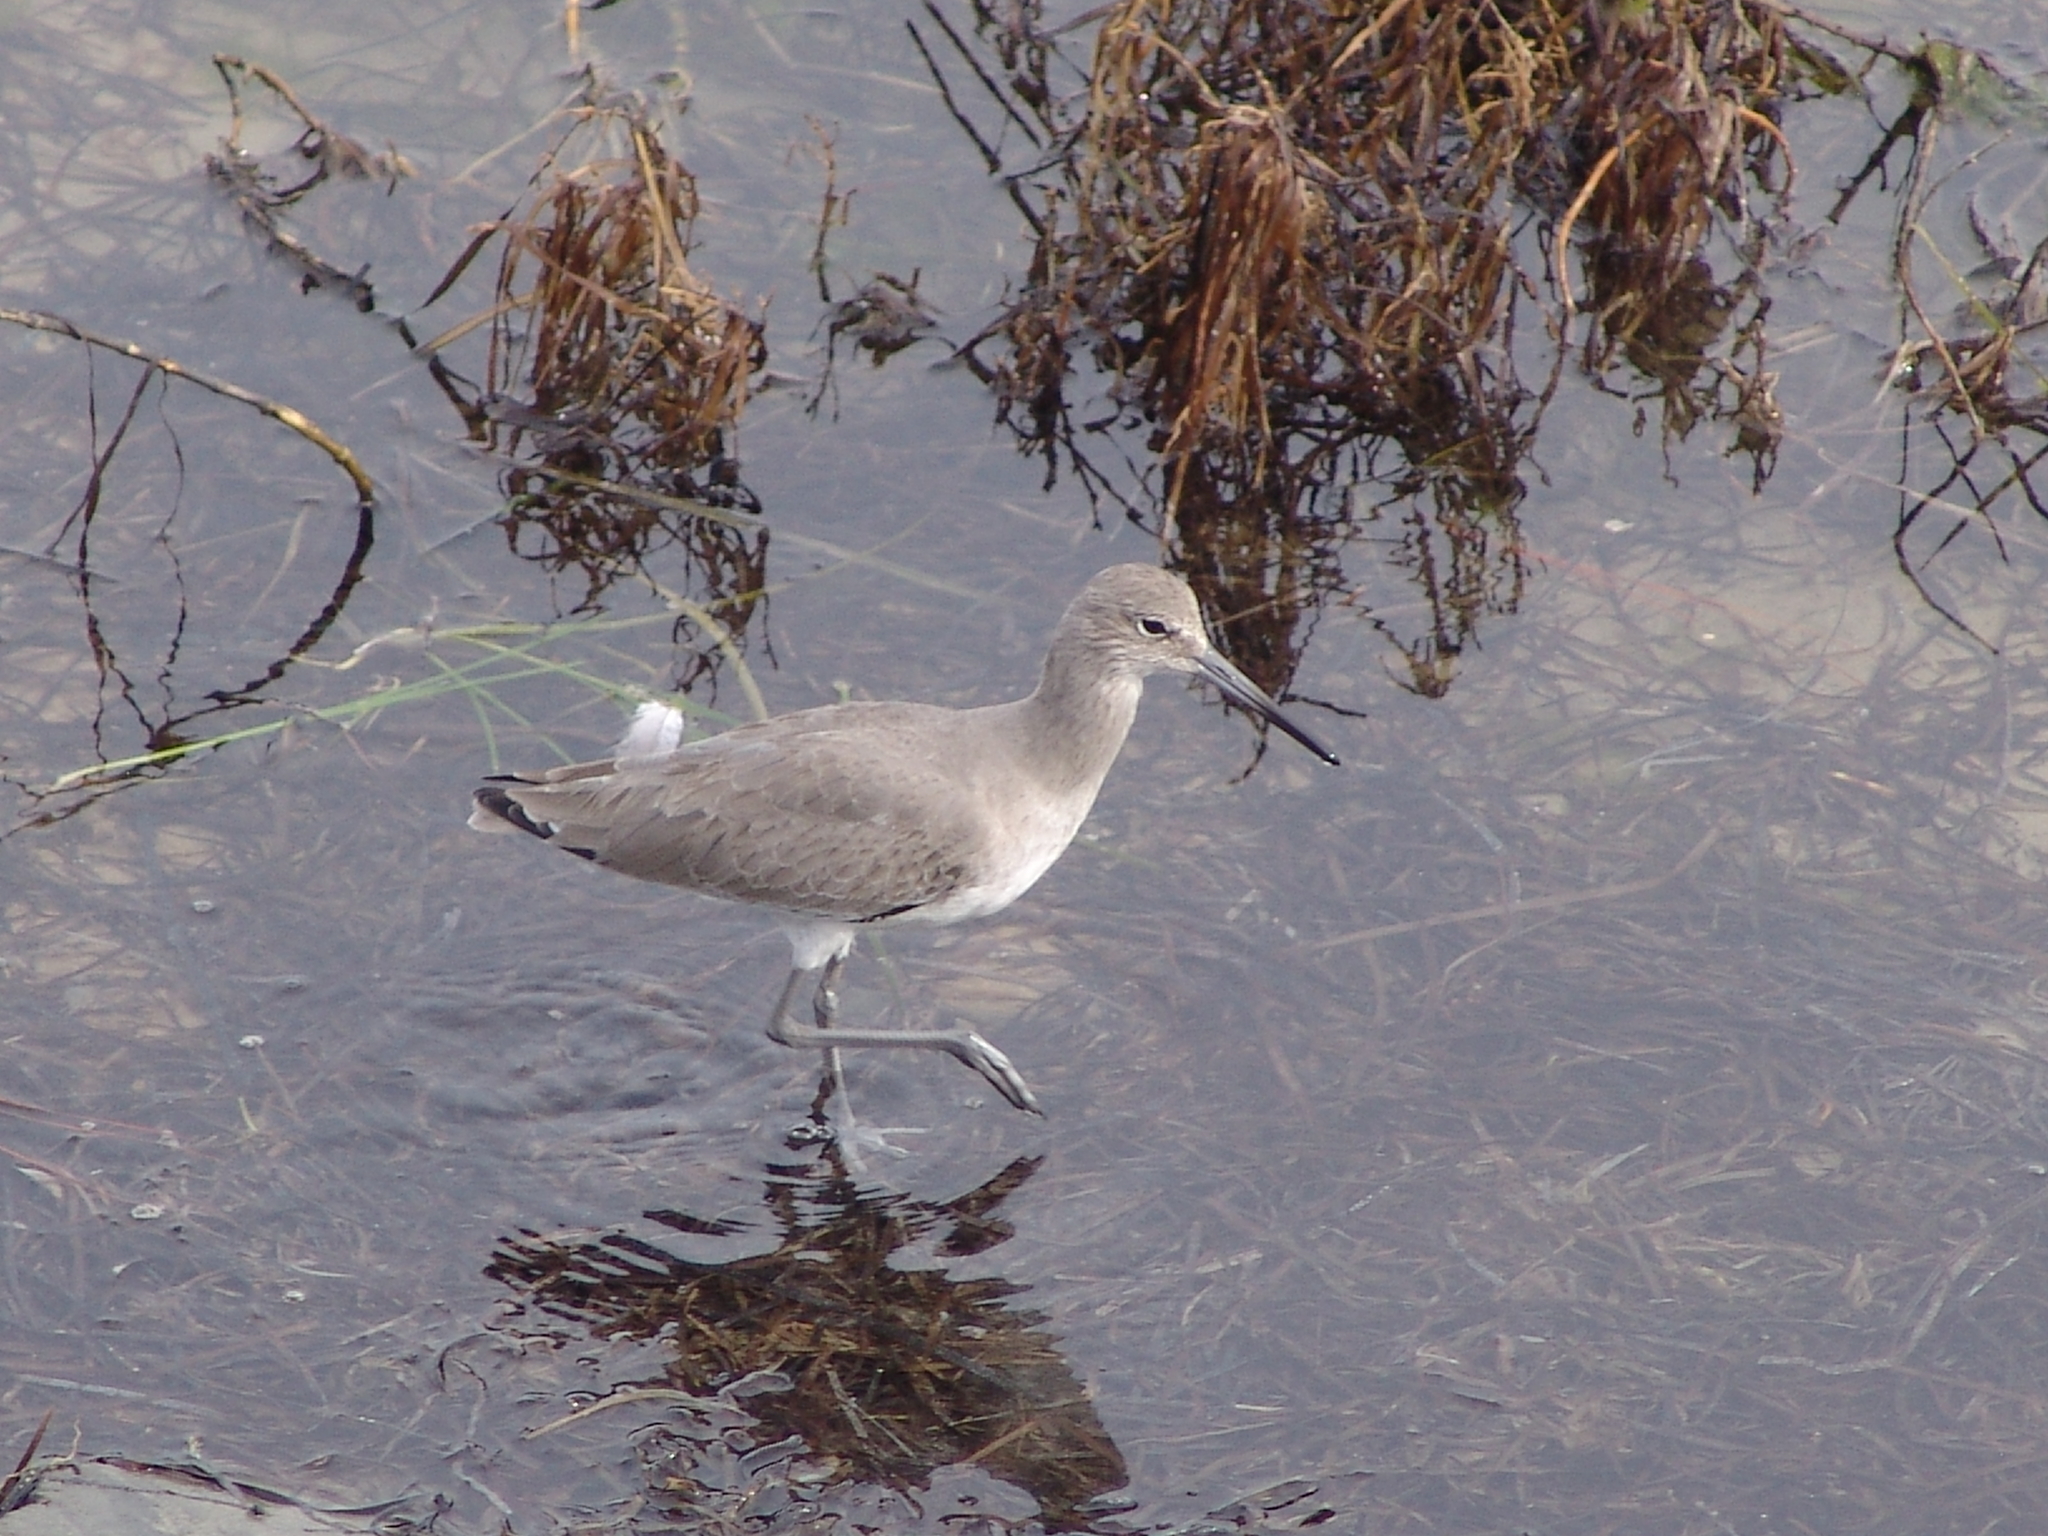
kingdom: Animalia
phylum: Chordata
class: Aves
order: Charadriiformes
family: Scolopacidae
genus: Tringa
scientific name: Tringa semipalmata
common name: Willet
